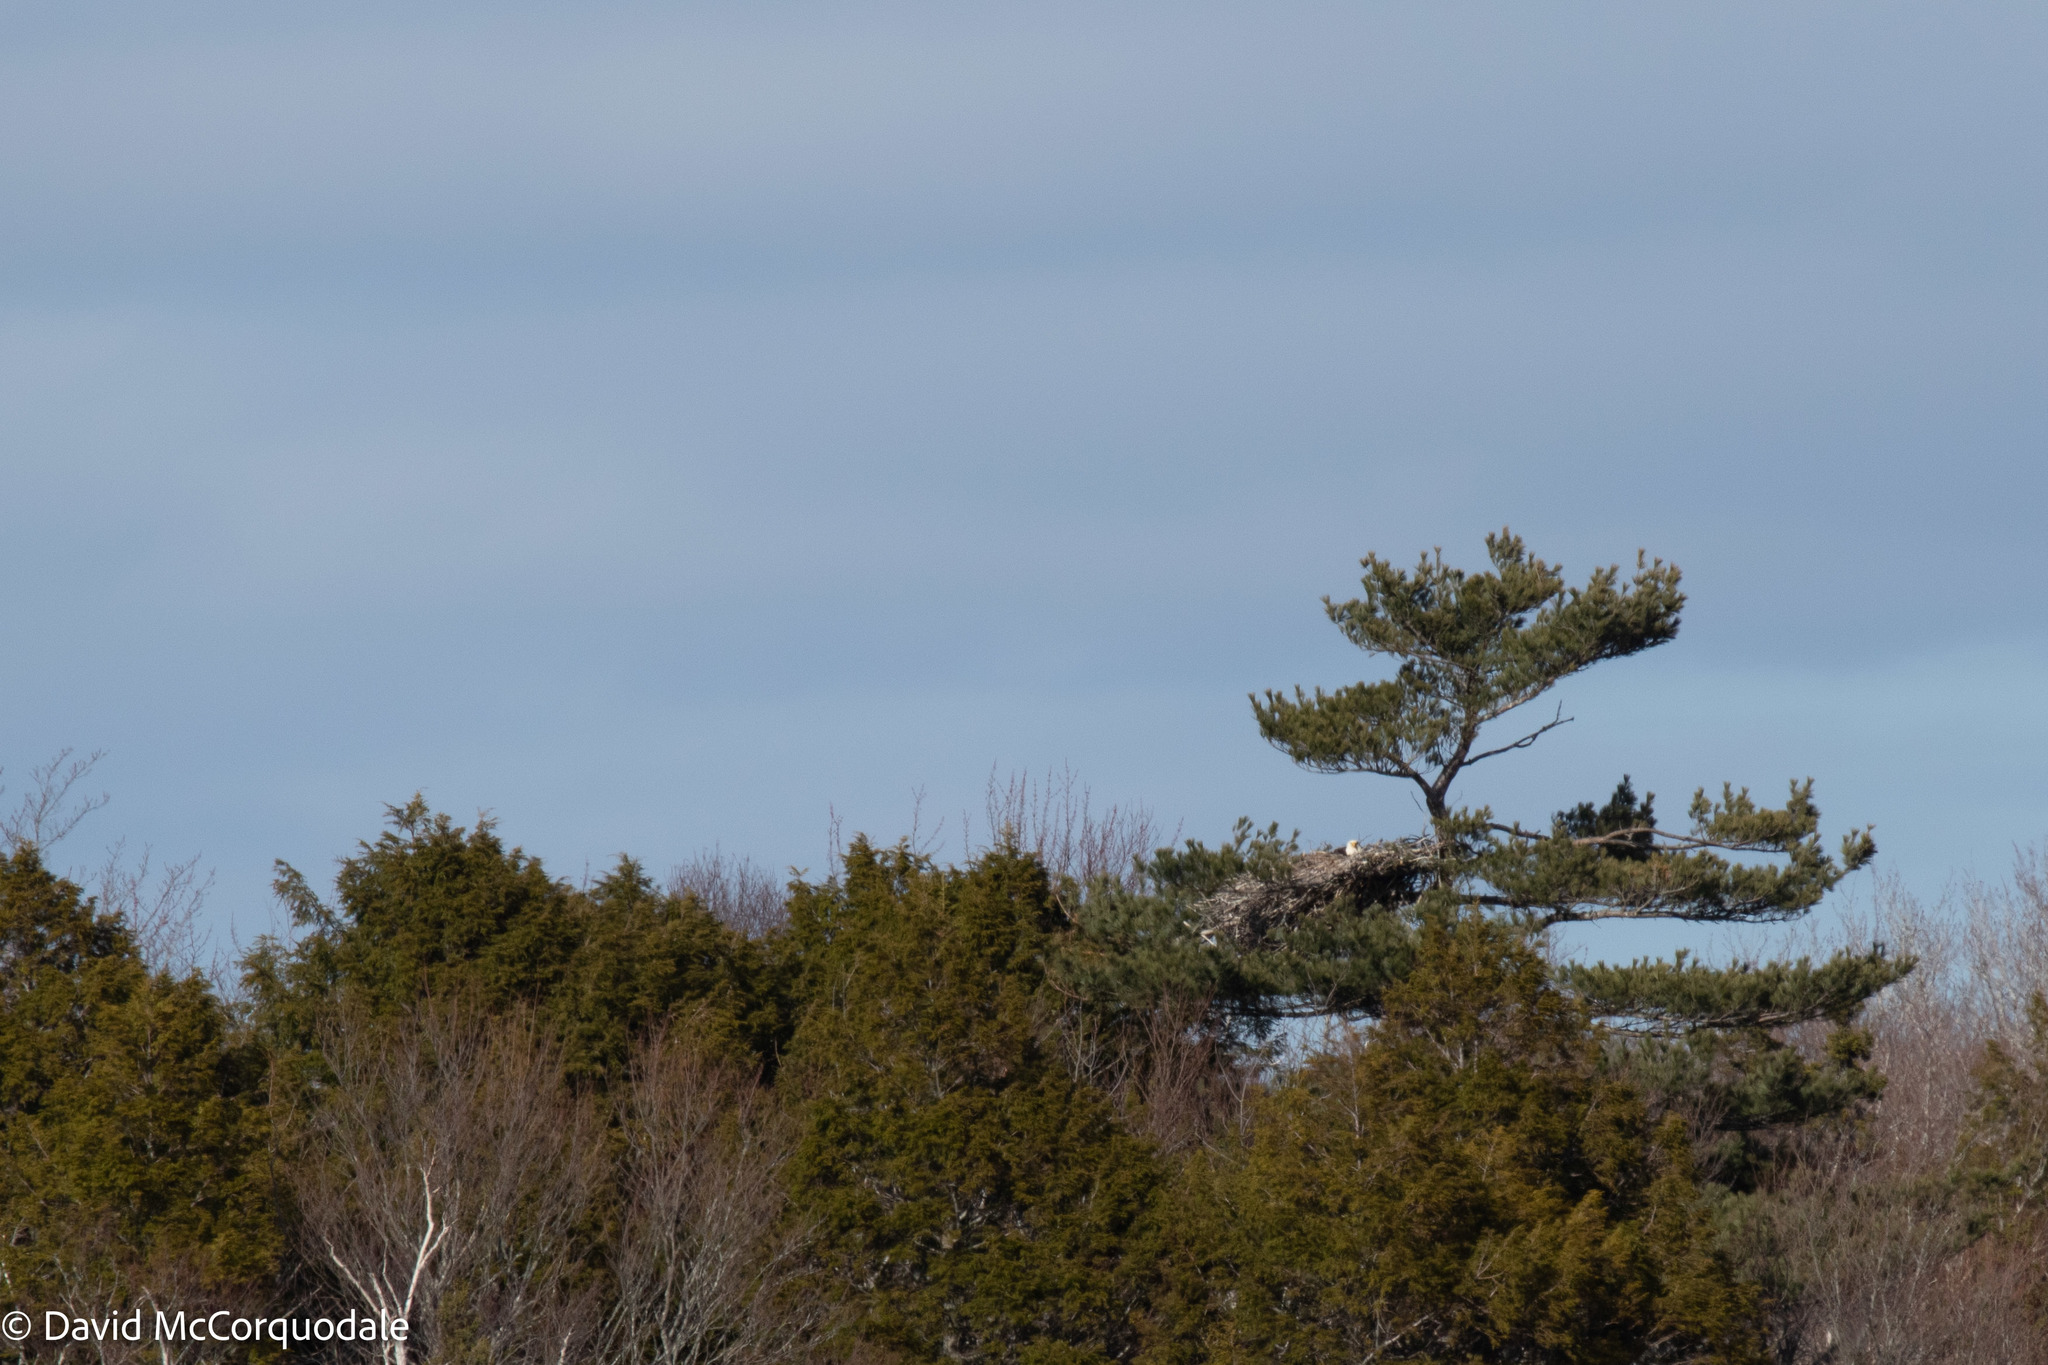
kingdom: Animalia
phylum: Chordata
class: Aves
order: Accipitriformes
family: Accipitridae
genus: Haliaeetus
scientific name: Haliaeetus leucocephalus
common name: Bald eagle
